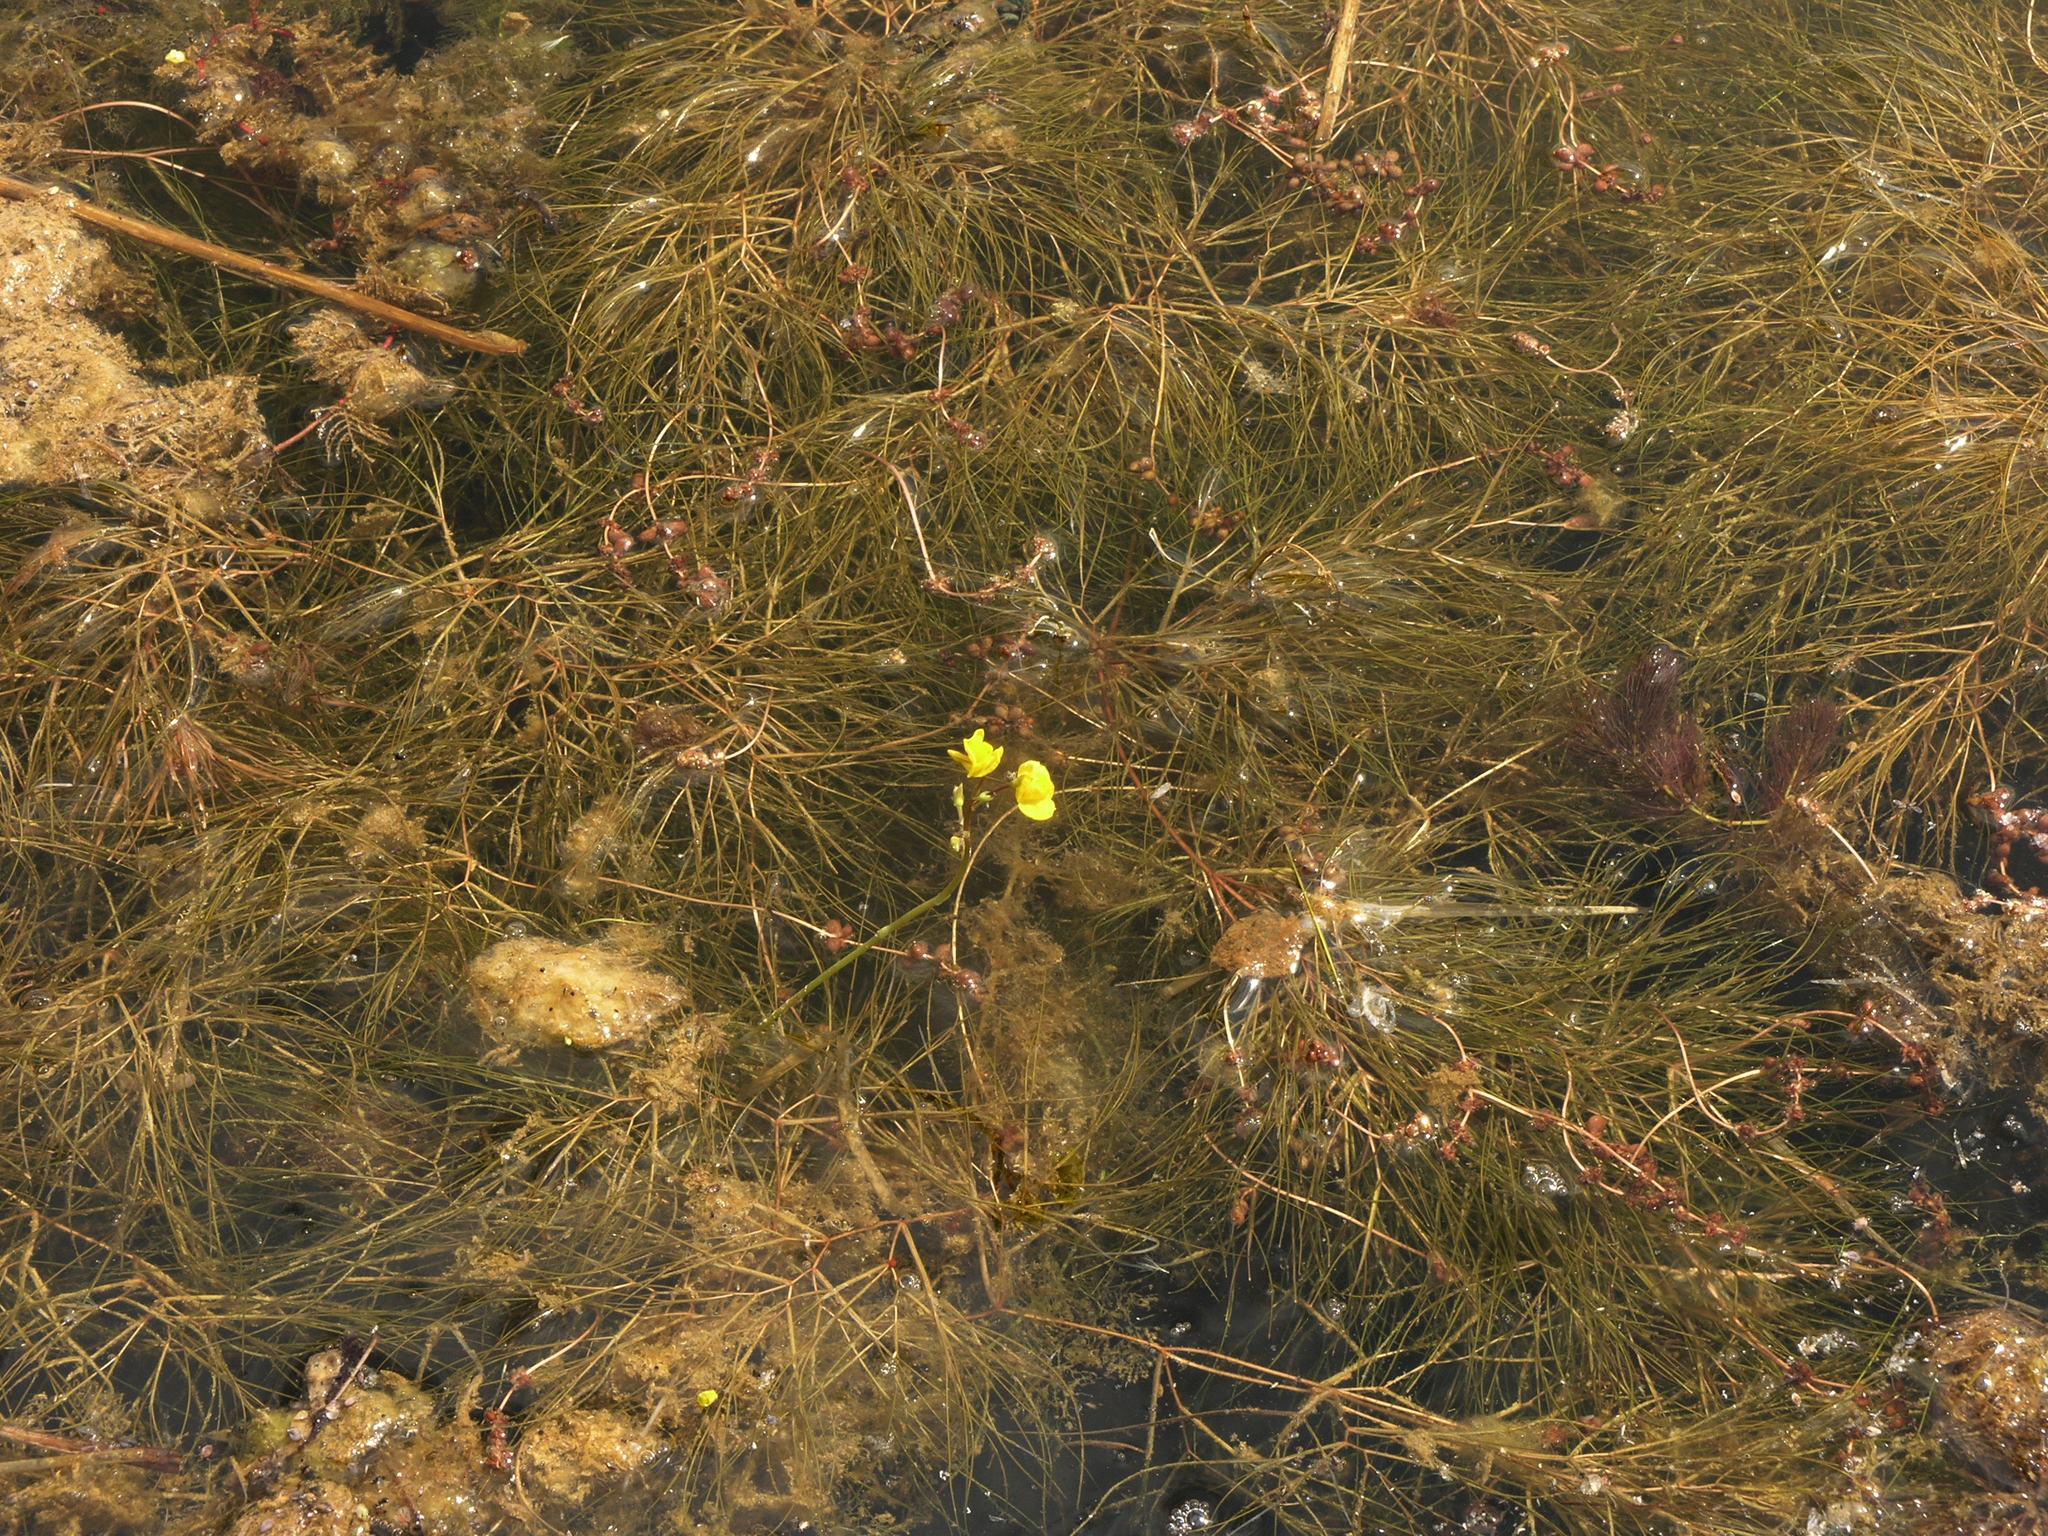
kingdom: Plantae
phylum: Tracheophyta
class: Magnoliopsida
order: Lamiales
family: Lentibulariaceae
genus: Utricularia
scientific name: Utricularia vulgaris
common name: Greater bladderwort
